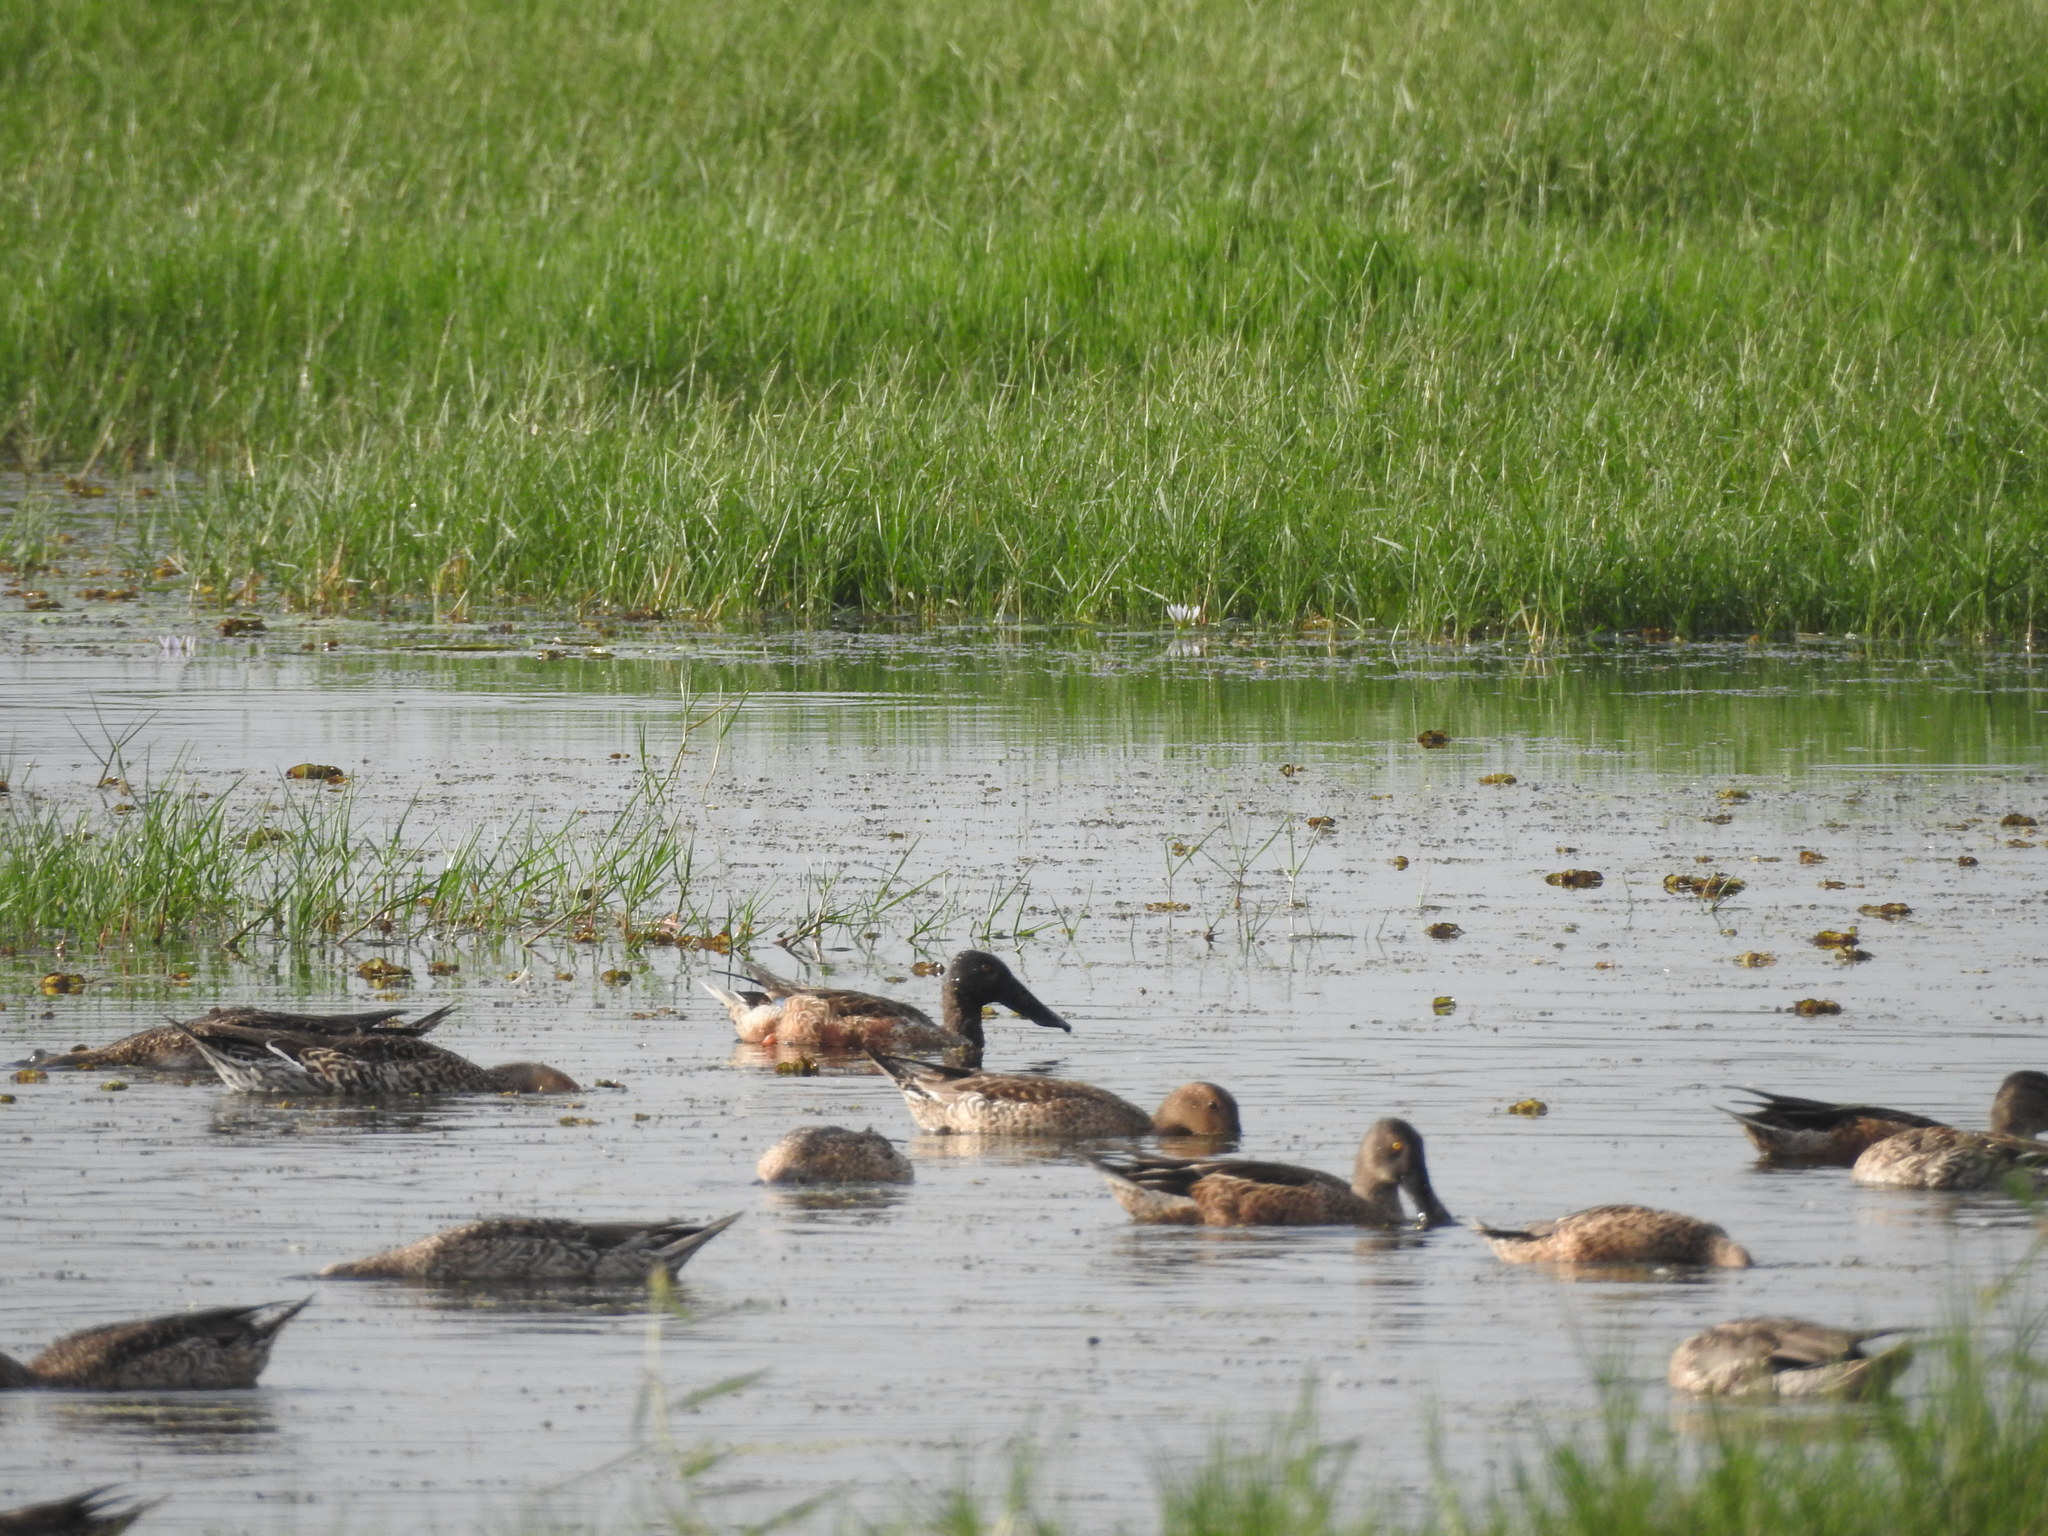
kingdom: Animalia
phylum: Chordata
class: Aves
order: Anseriformes
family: Anatidae
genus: Spatula
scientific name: Spatula clypeata
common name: Northern shoveler
